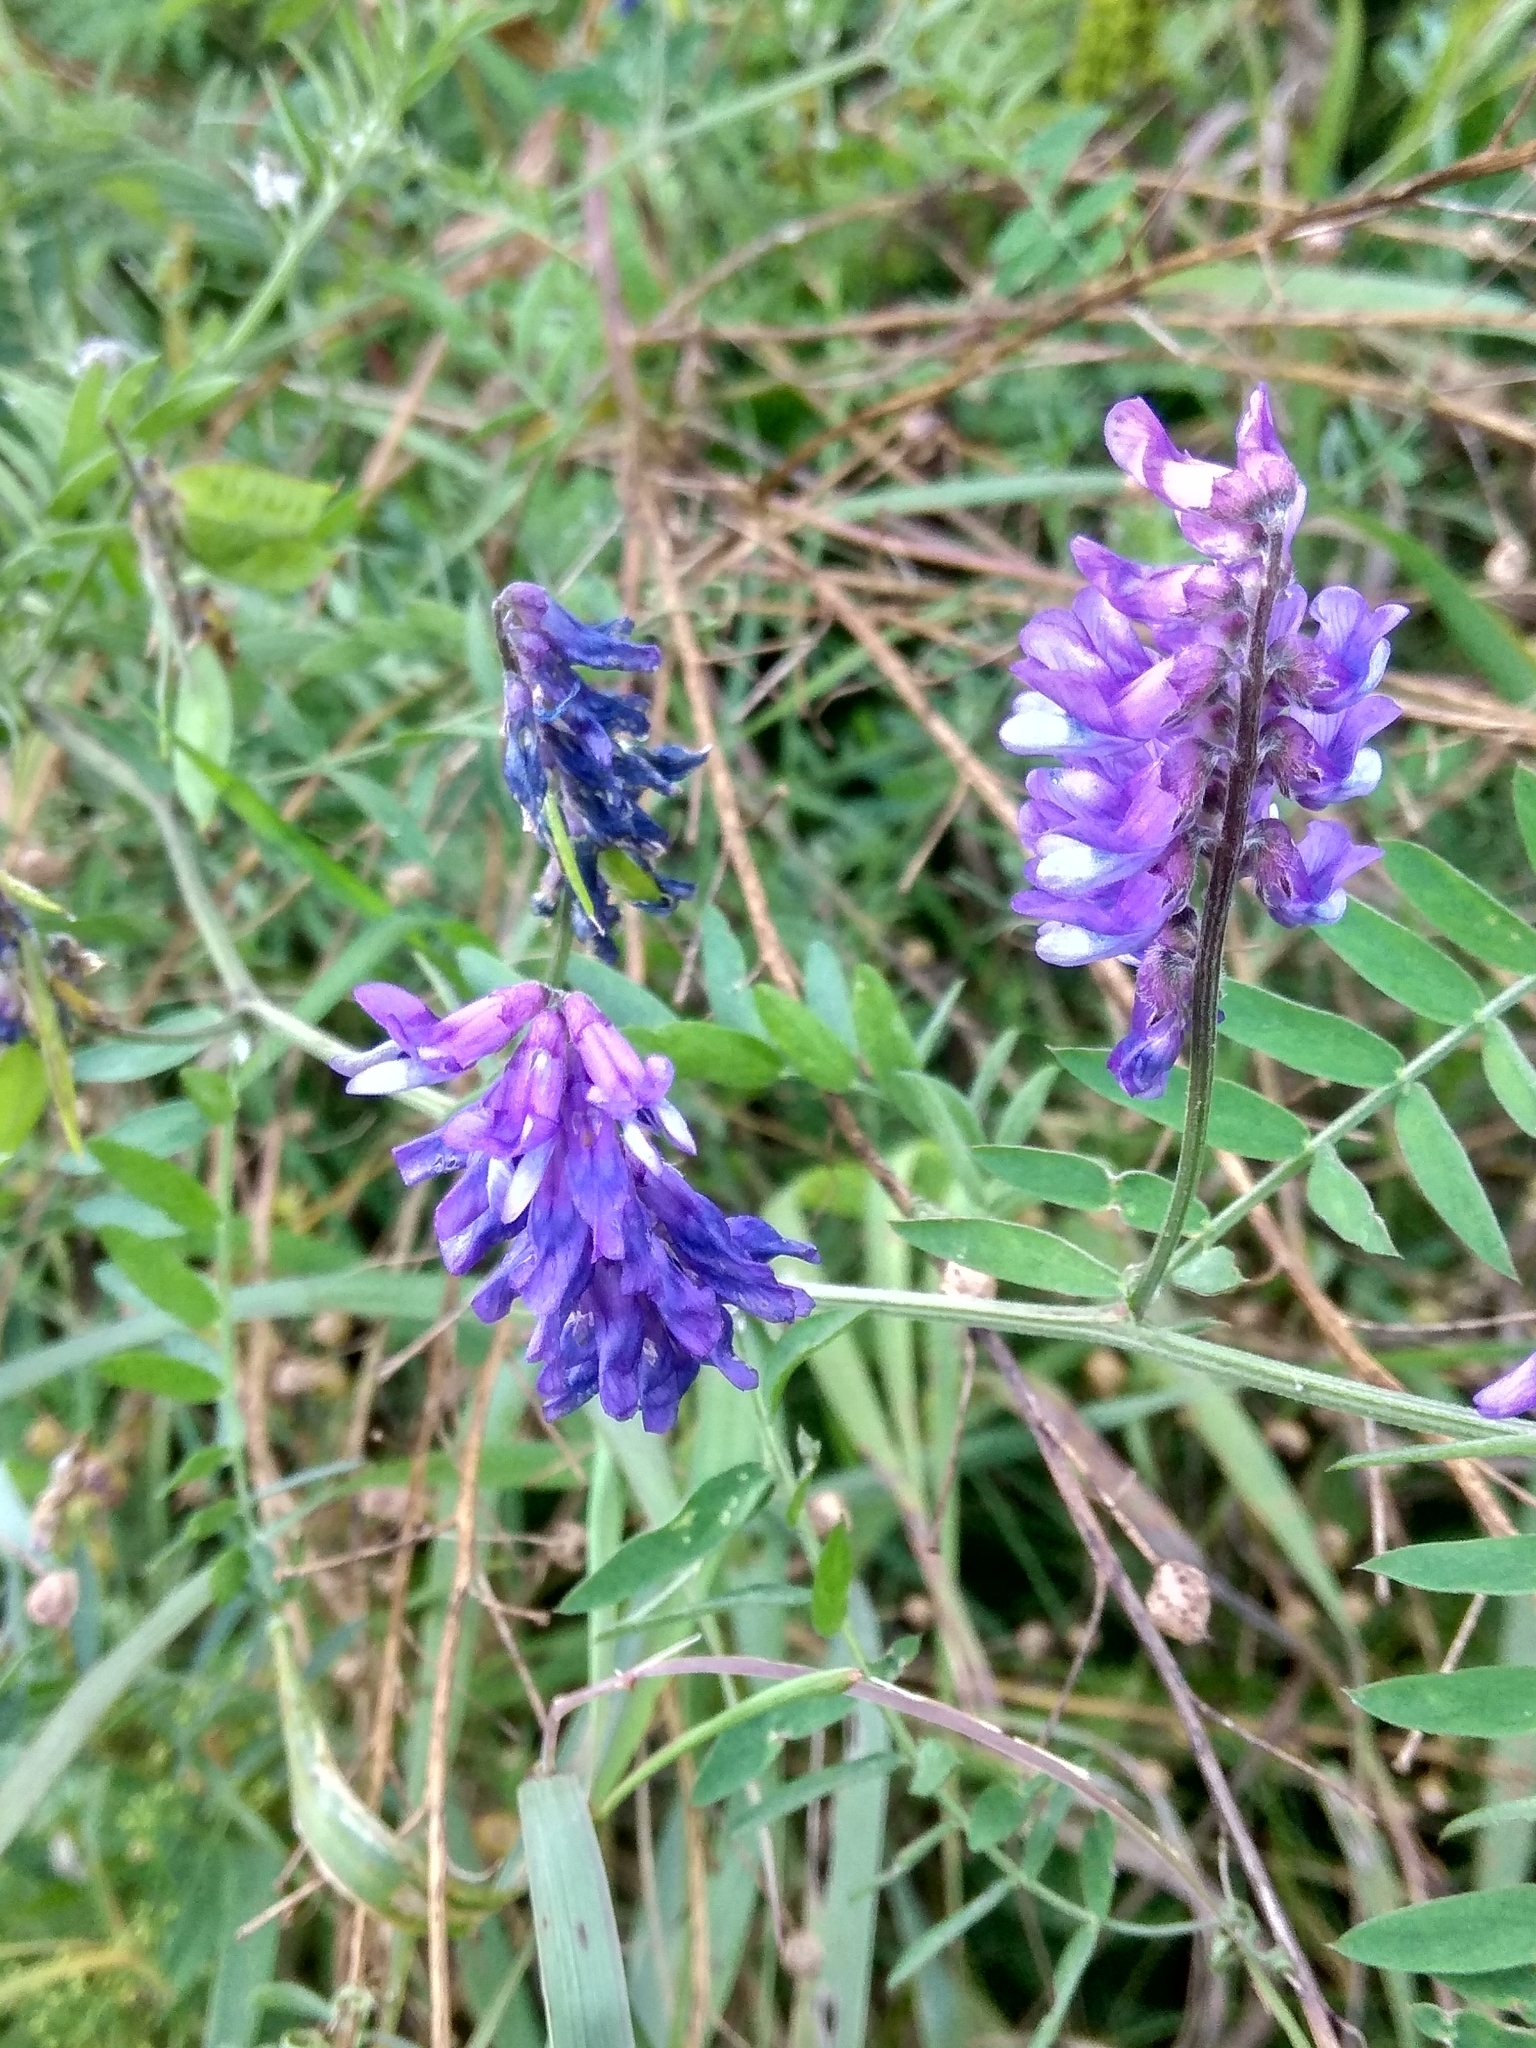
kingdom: Plantae
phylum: Tracheophyta
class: Magnoliopsida
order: Fabales
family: Fabaceae
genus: Vicia
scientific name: Vicia cracca
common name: Bird vetch
